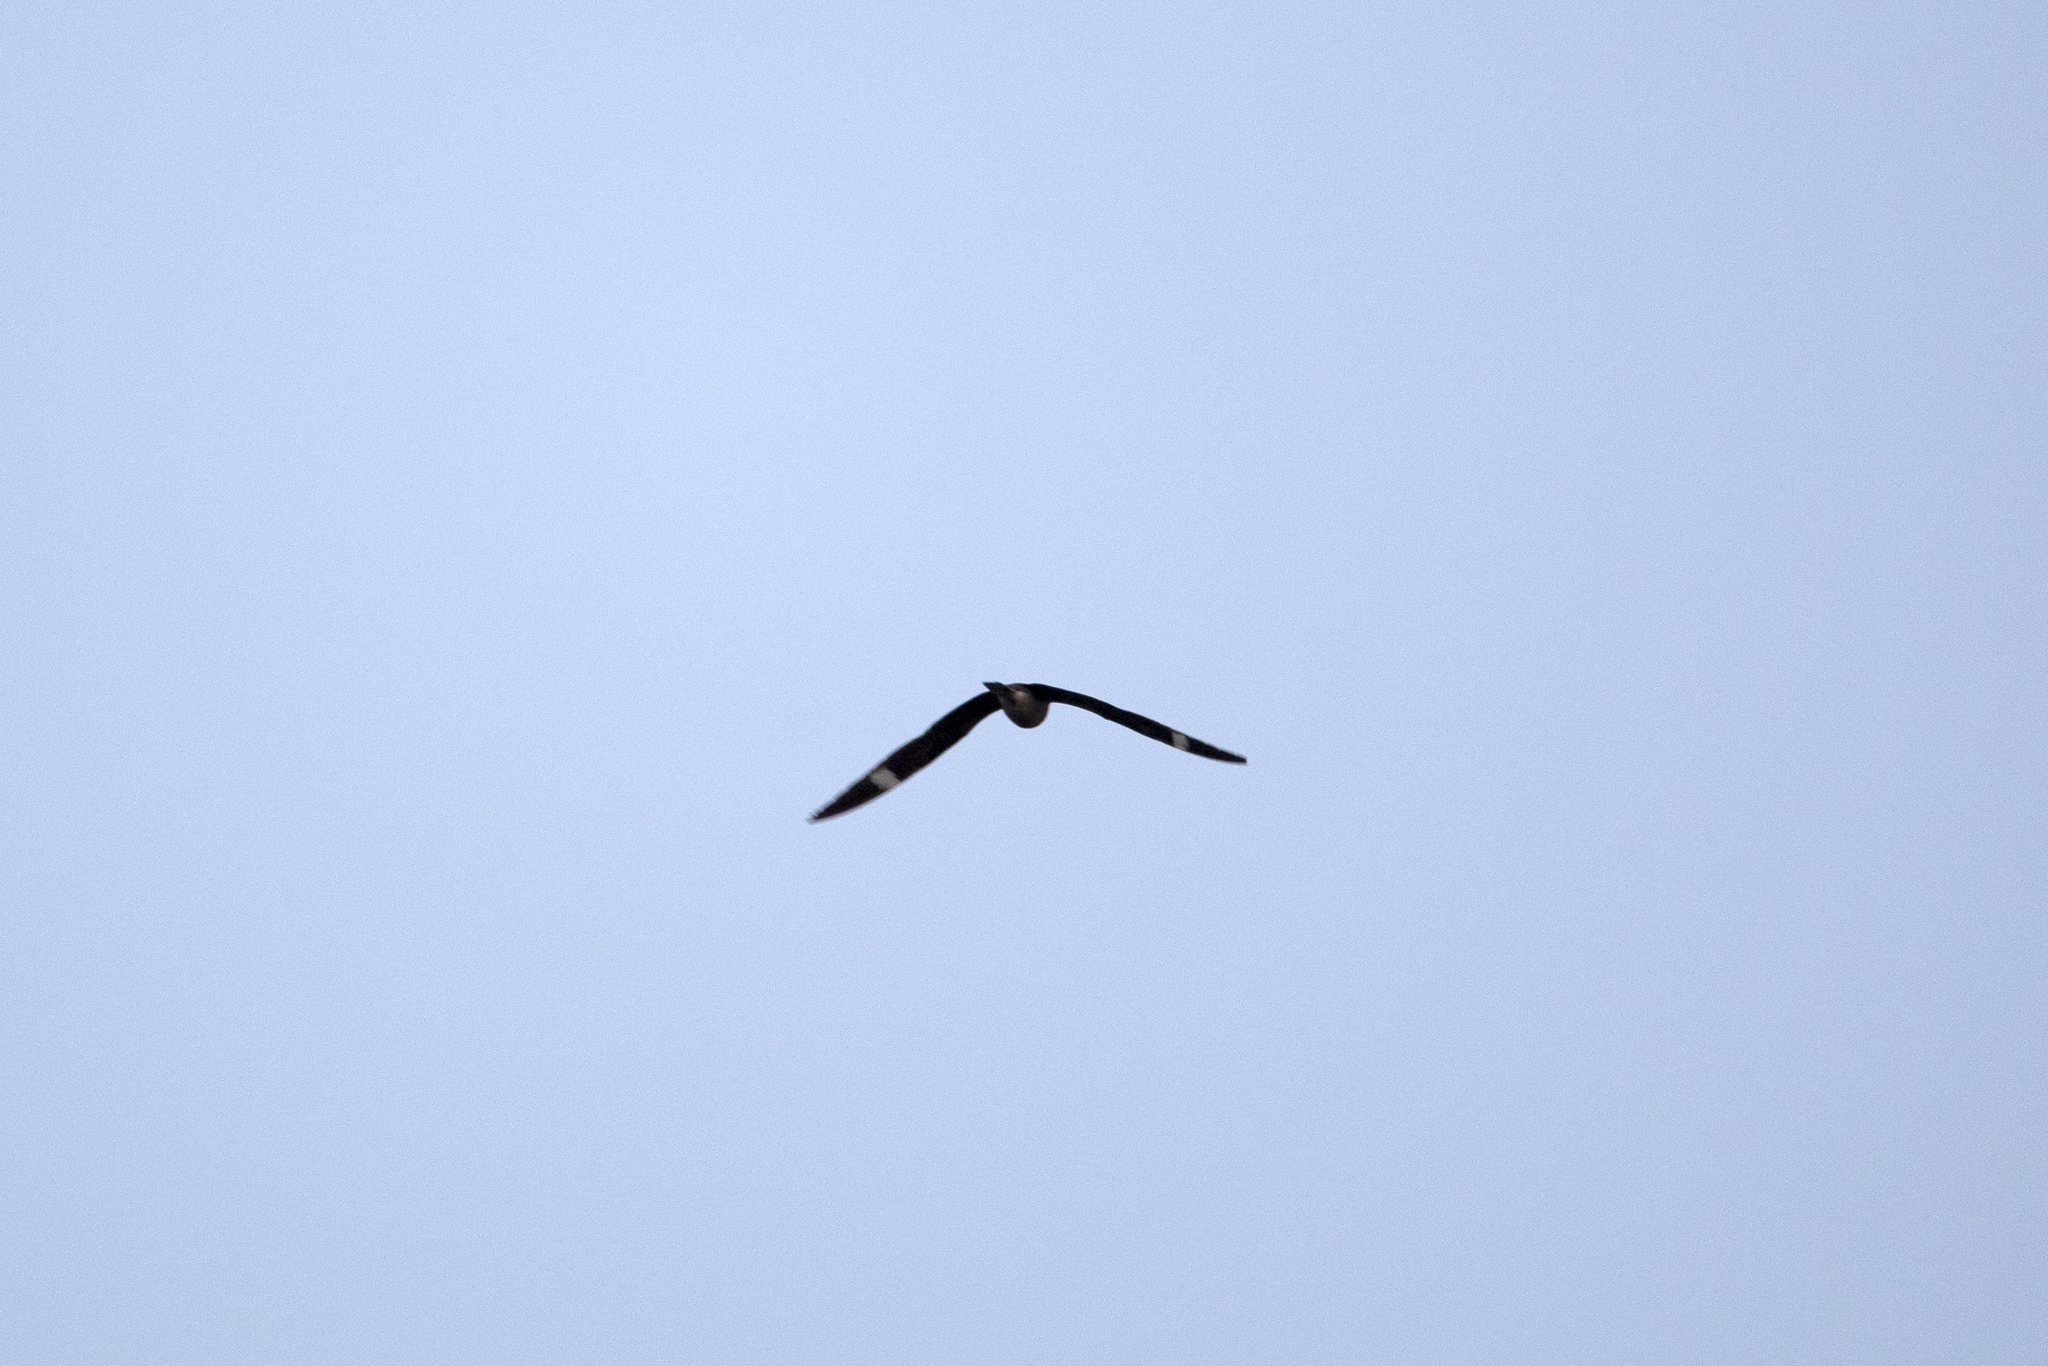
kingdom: Animalia
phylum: Chordata
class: Aves
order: Caprimulgiformes
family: Caprimulgidae
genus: Chordeiles
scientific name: Chordeiles minor
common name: Common nighthawk
